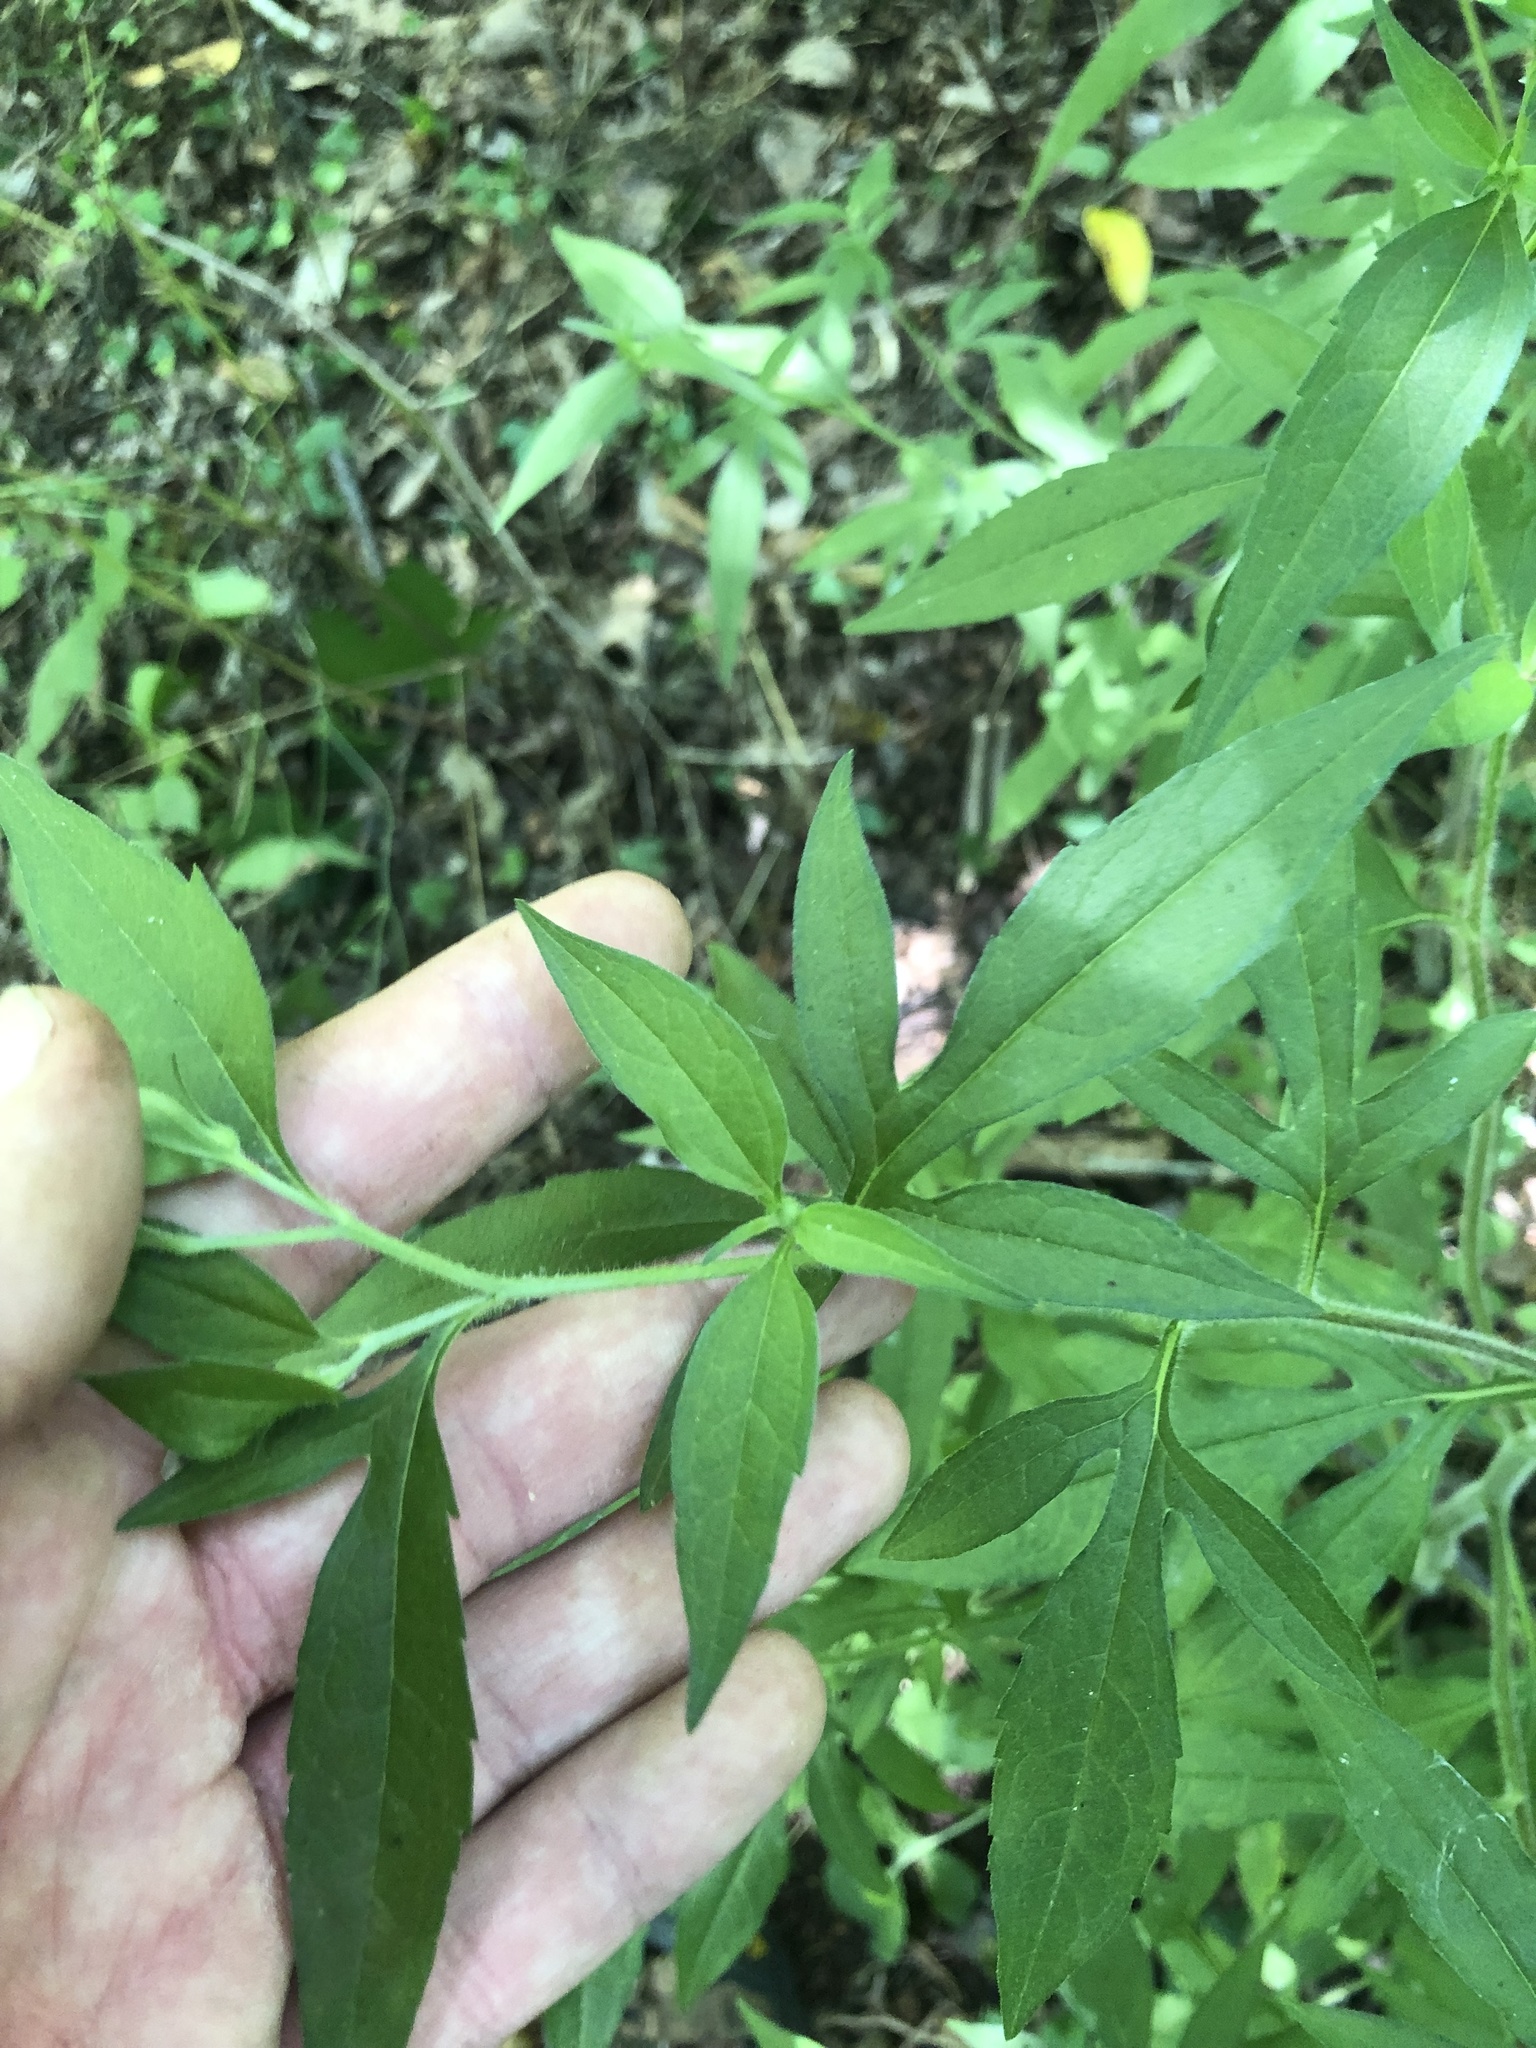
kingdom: Plantae
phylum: Tracheophyta
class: Magnoliopsida
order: Asterales
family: Asteraceae
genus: Rudbeckia
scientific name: Rudbeckia triloba
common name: Thin-leaved coneflower
